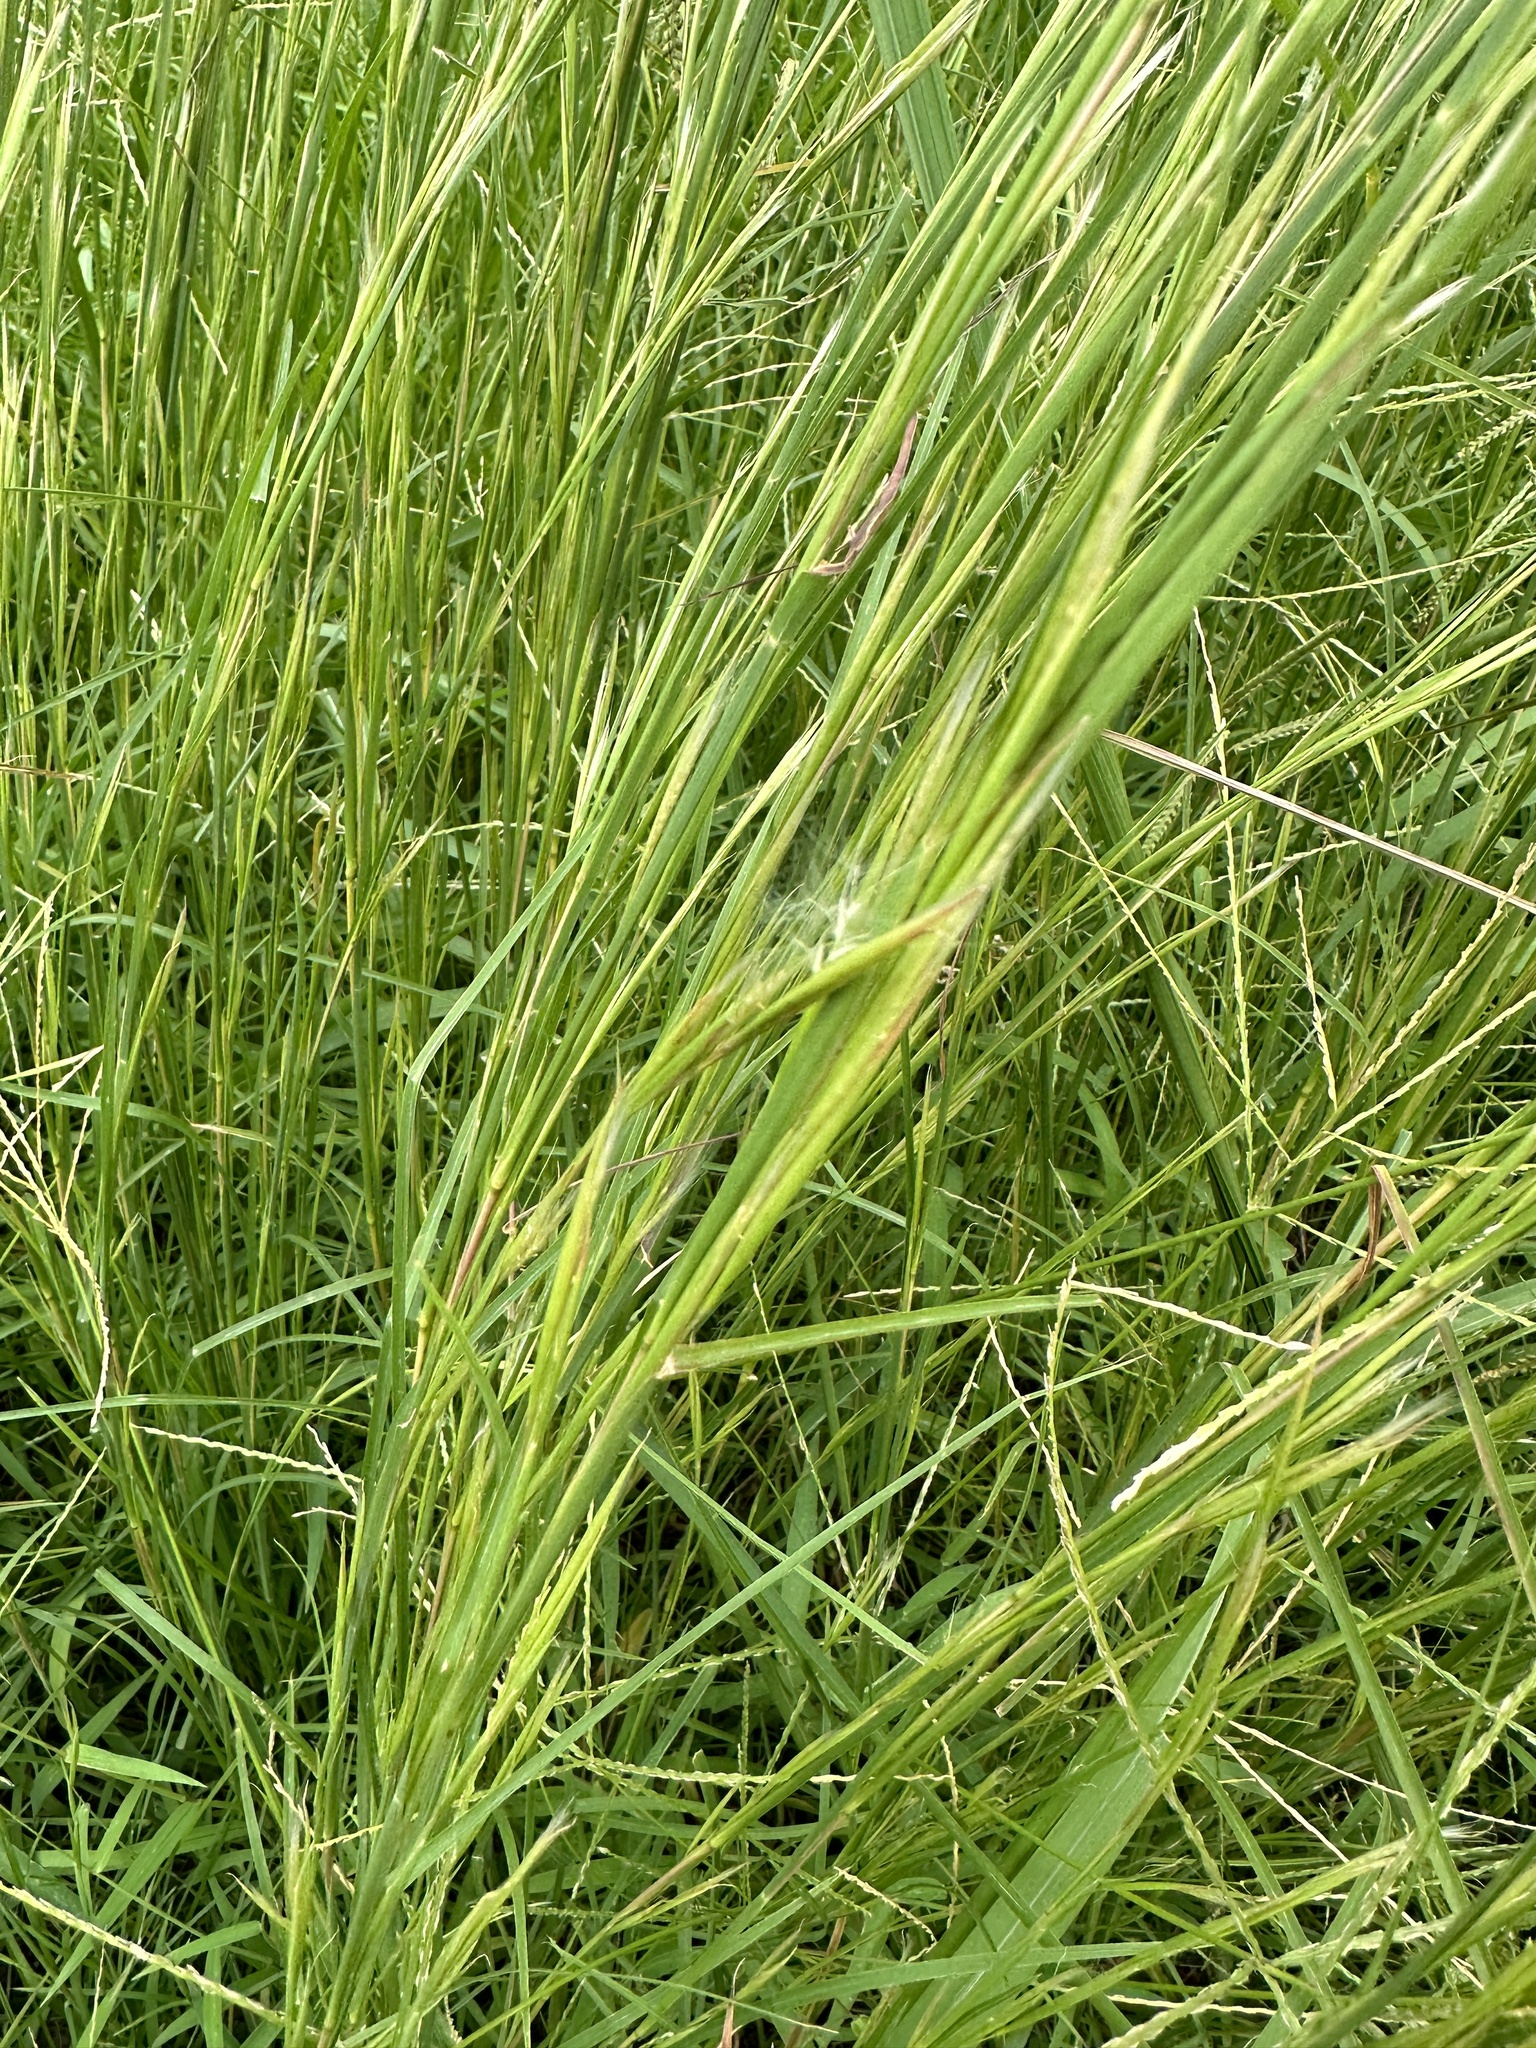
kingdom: Plantae
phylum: Tracheophyta
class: Liliopsida
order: Poales
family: Poaceae
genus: Andropogon
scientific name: Andropogon virginicus
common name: Broomsedge bluestem
